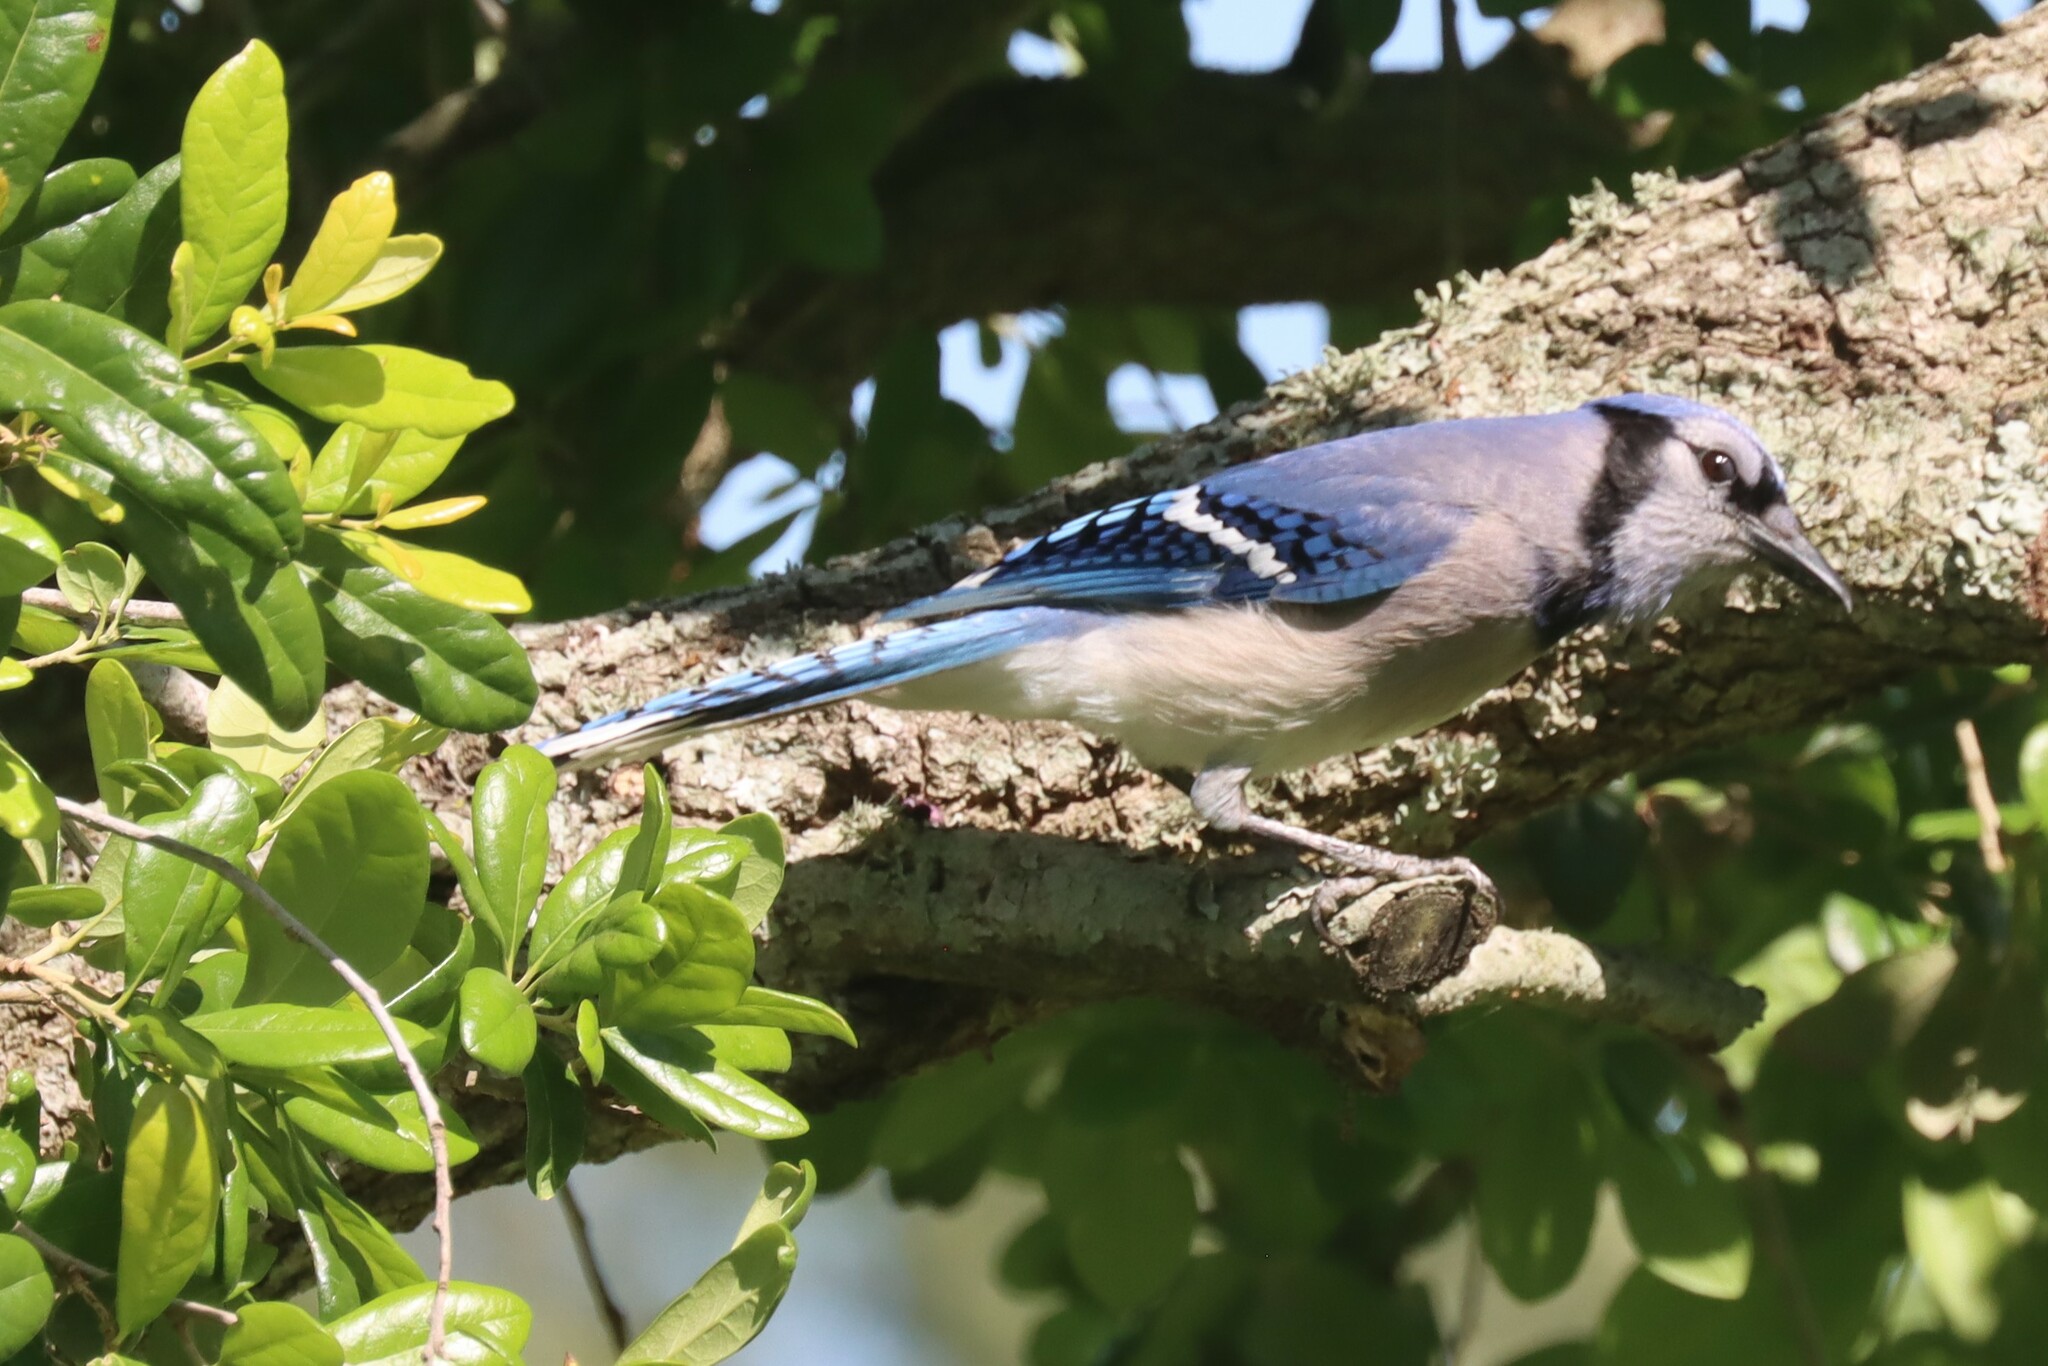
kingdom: Animalia
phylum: Chordata
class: Aves
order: Passeriformes
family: Corvidae
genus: Cyanocitta
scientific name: Cyanocitta cristata
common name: Blue jay
